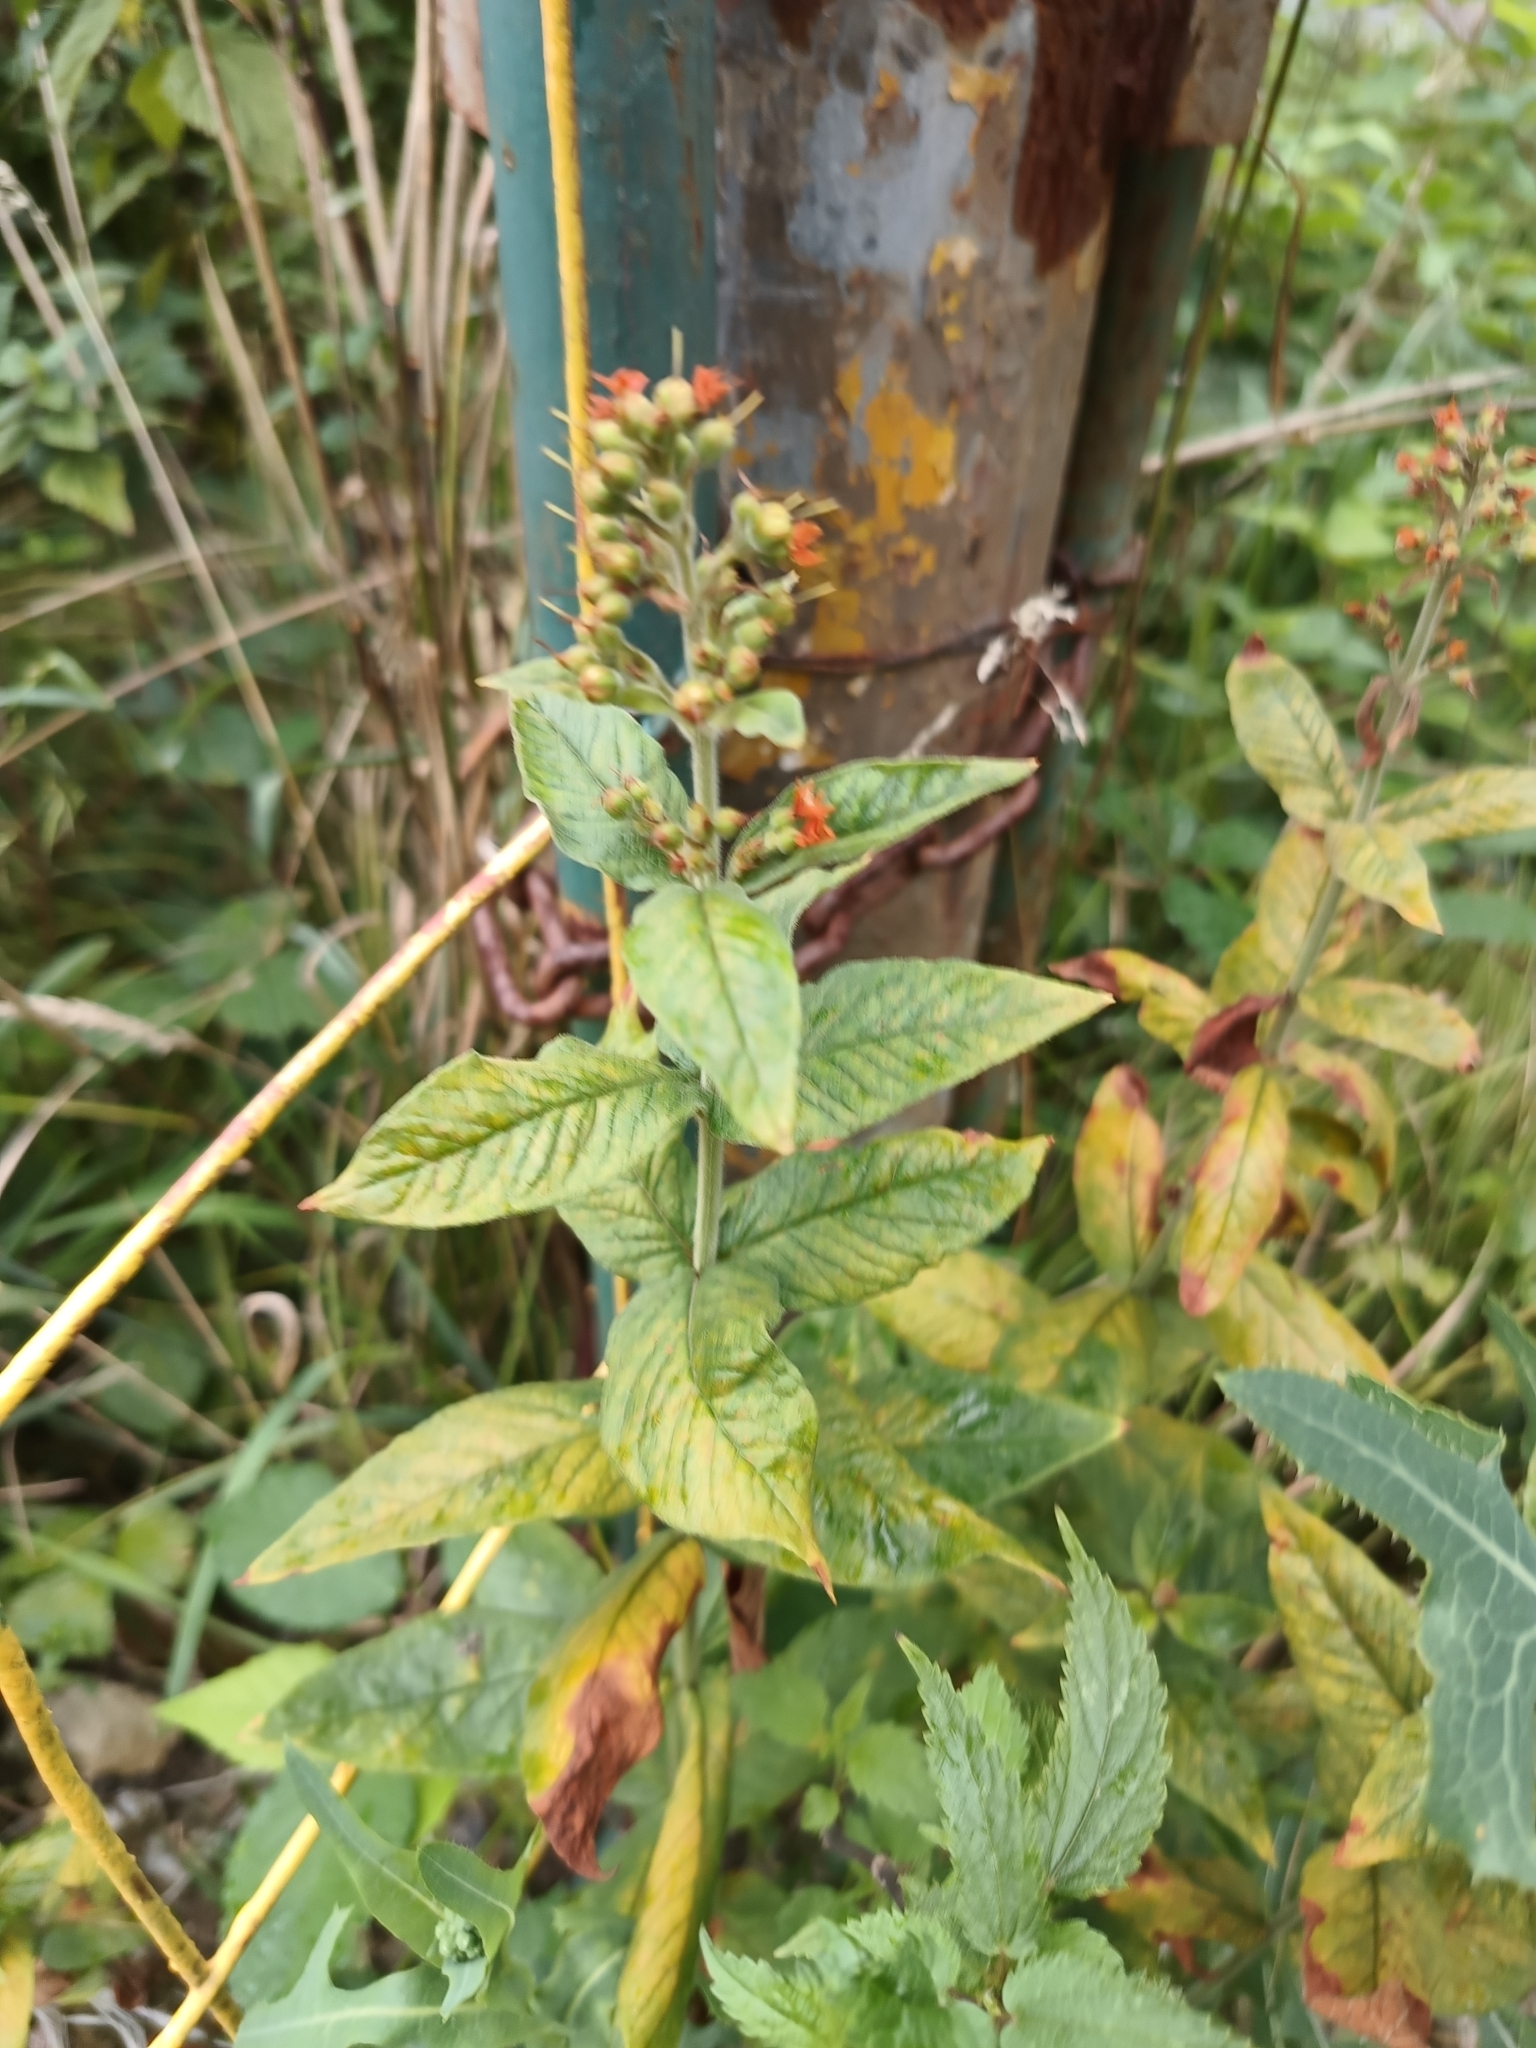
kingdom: Plantae
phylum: Tracheophyta
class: Magnoliopsida
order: Ericales
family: Primulaceae
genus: Lysimachia
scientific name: Lysimachia vulgaris
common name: Yellow loosestrife
